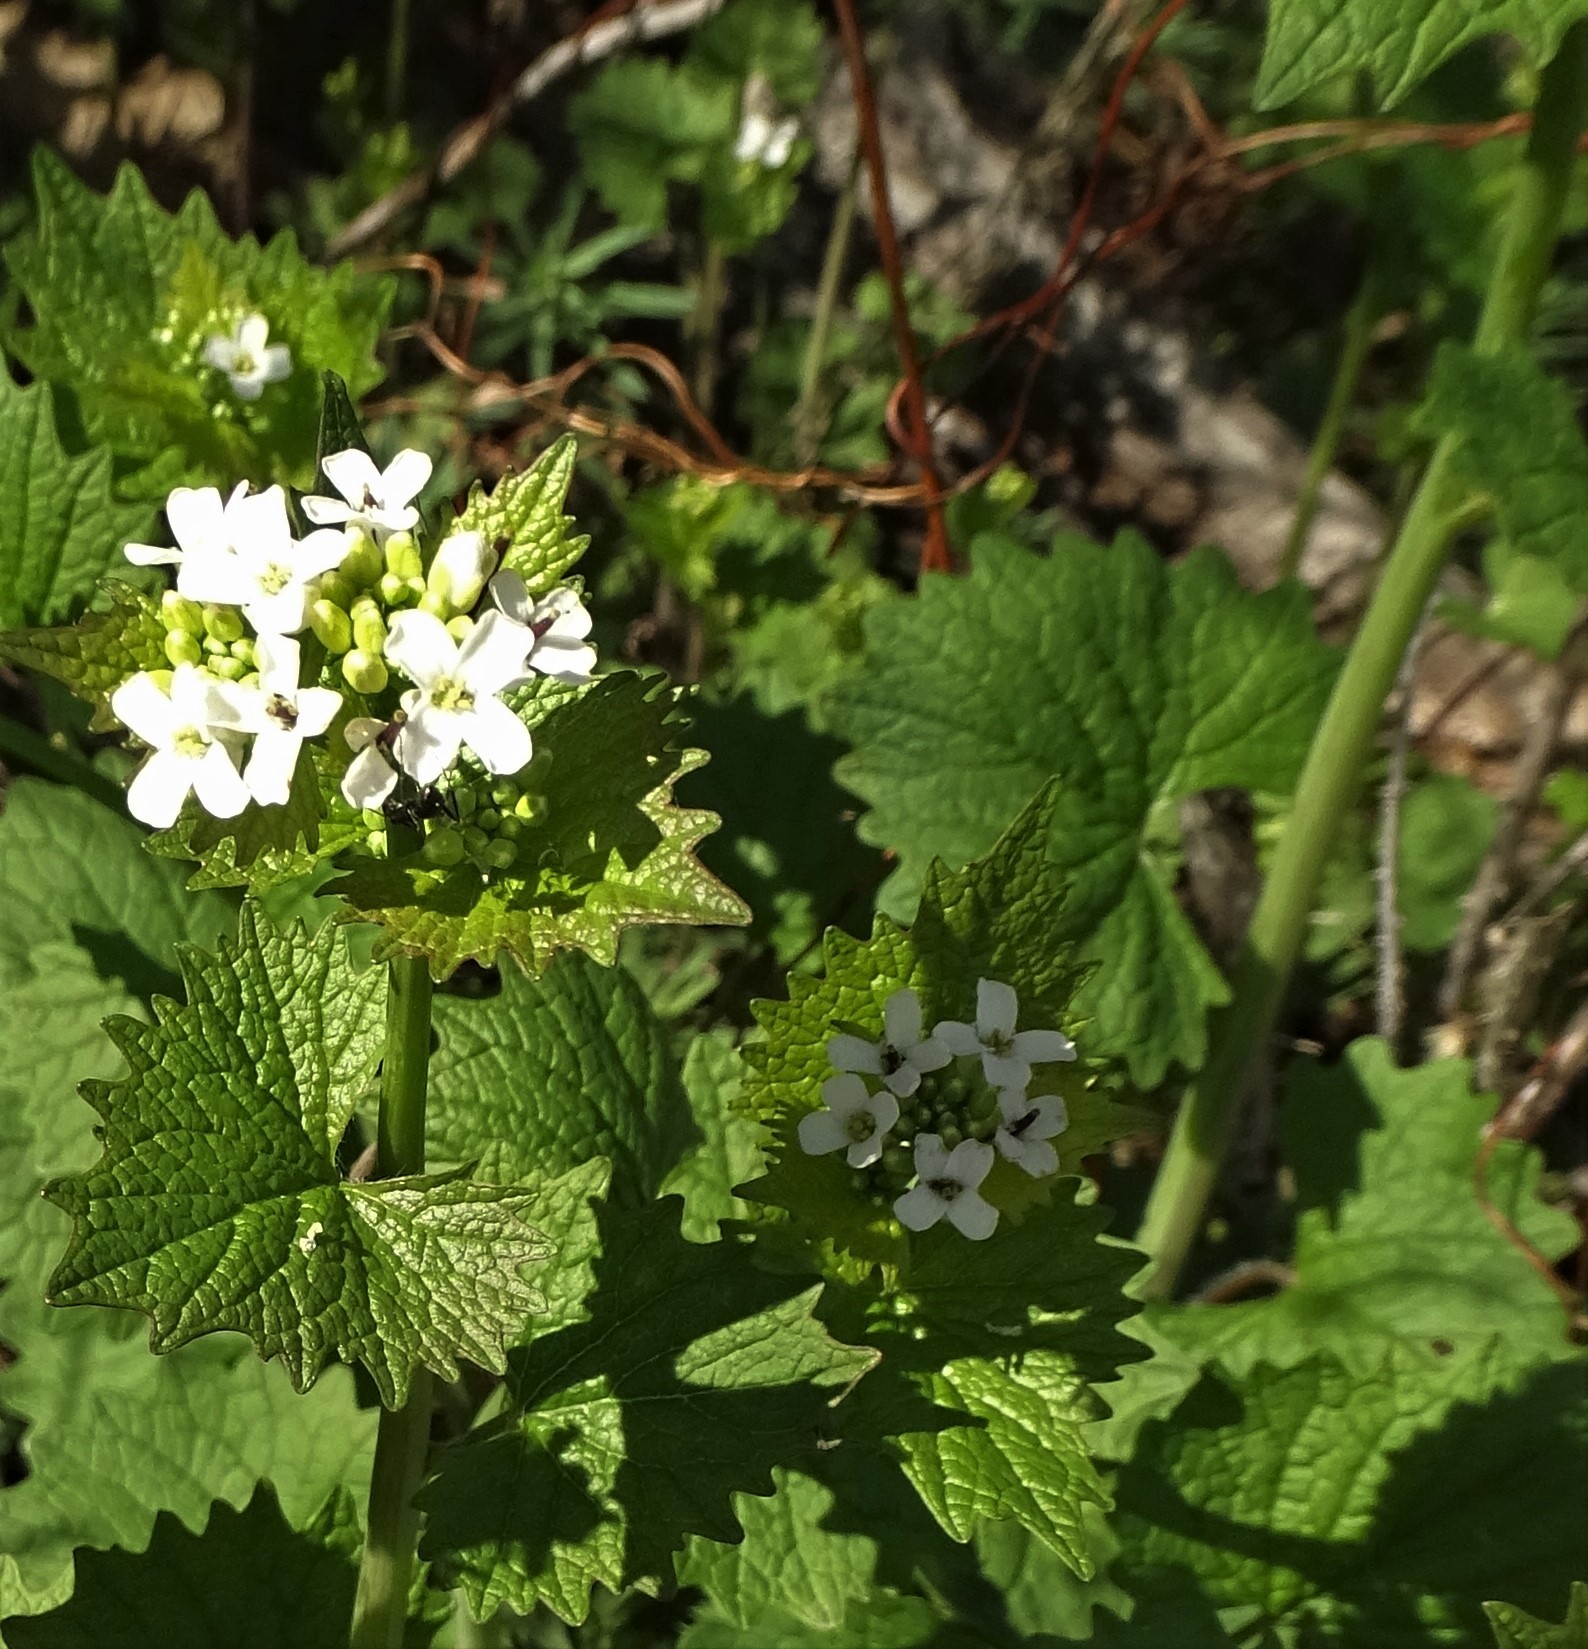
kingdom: Plantae
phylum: Tracheophyta
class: Magnoliopsida
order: Brassicales
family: Brassicaceae
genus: Alliaria
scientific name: Alliaria petiolata
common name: Garlic mustard
